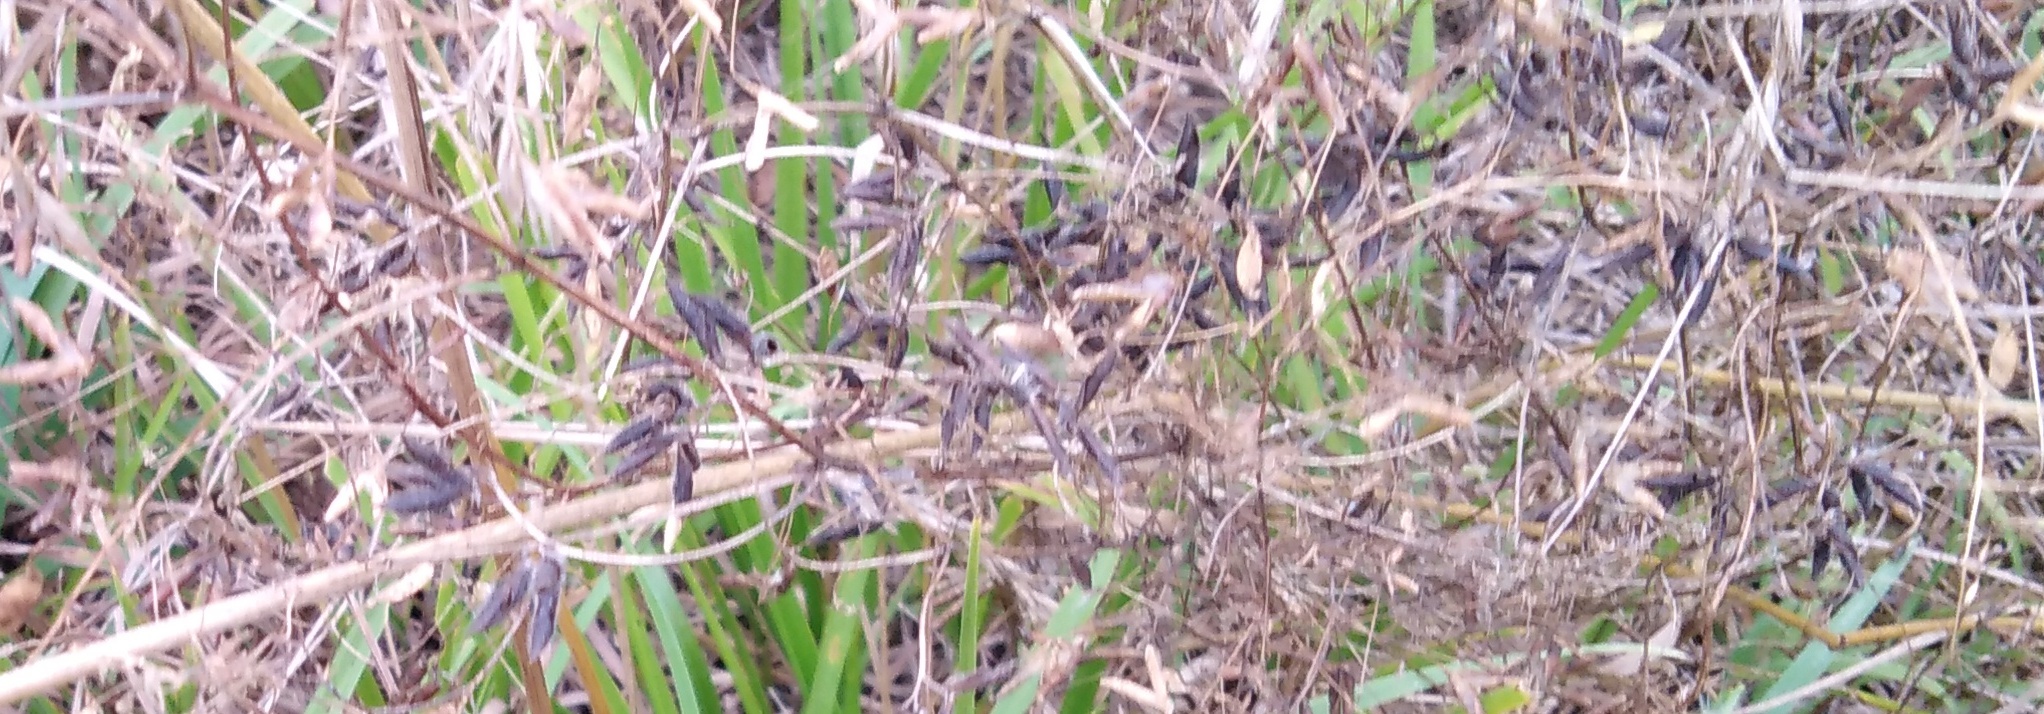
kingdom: Plantae
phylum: Tracheophyta
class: Magnoliopsida
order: Fabales
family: Fabaceae
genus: Vicia
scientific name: Vicia hirsuta
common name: Tiny vetch
